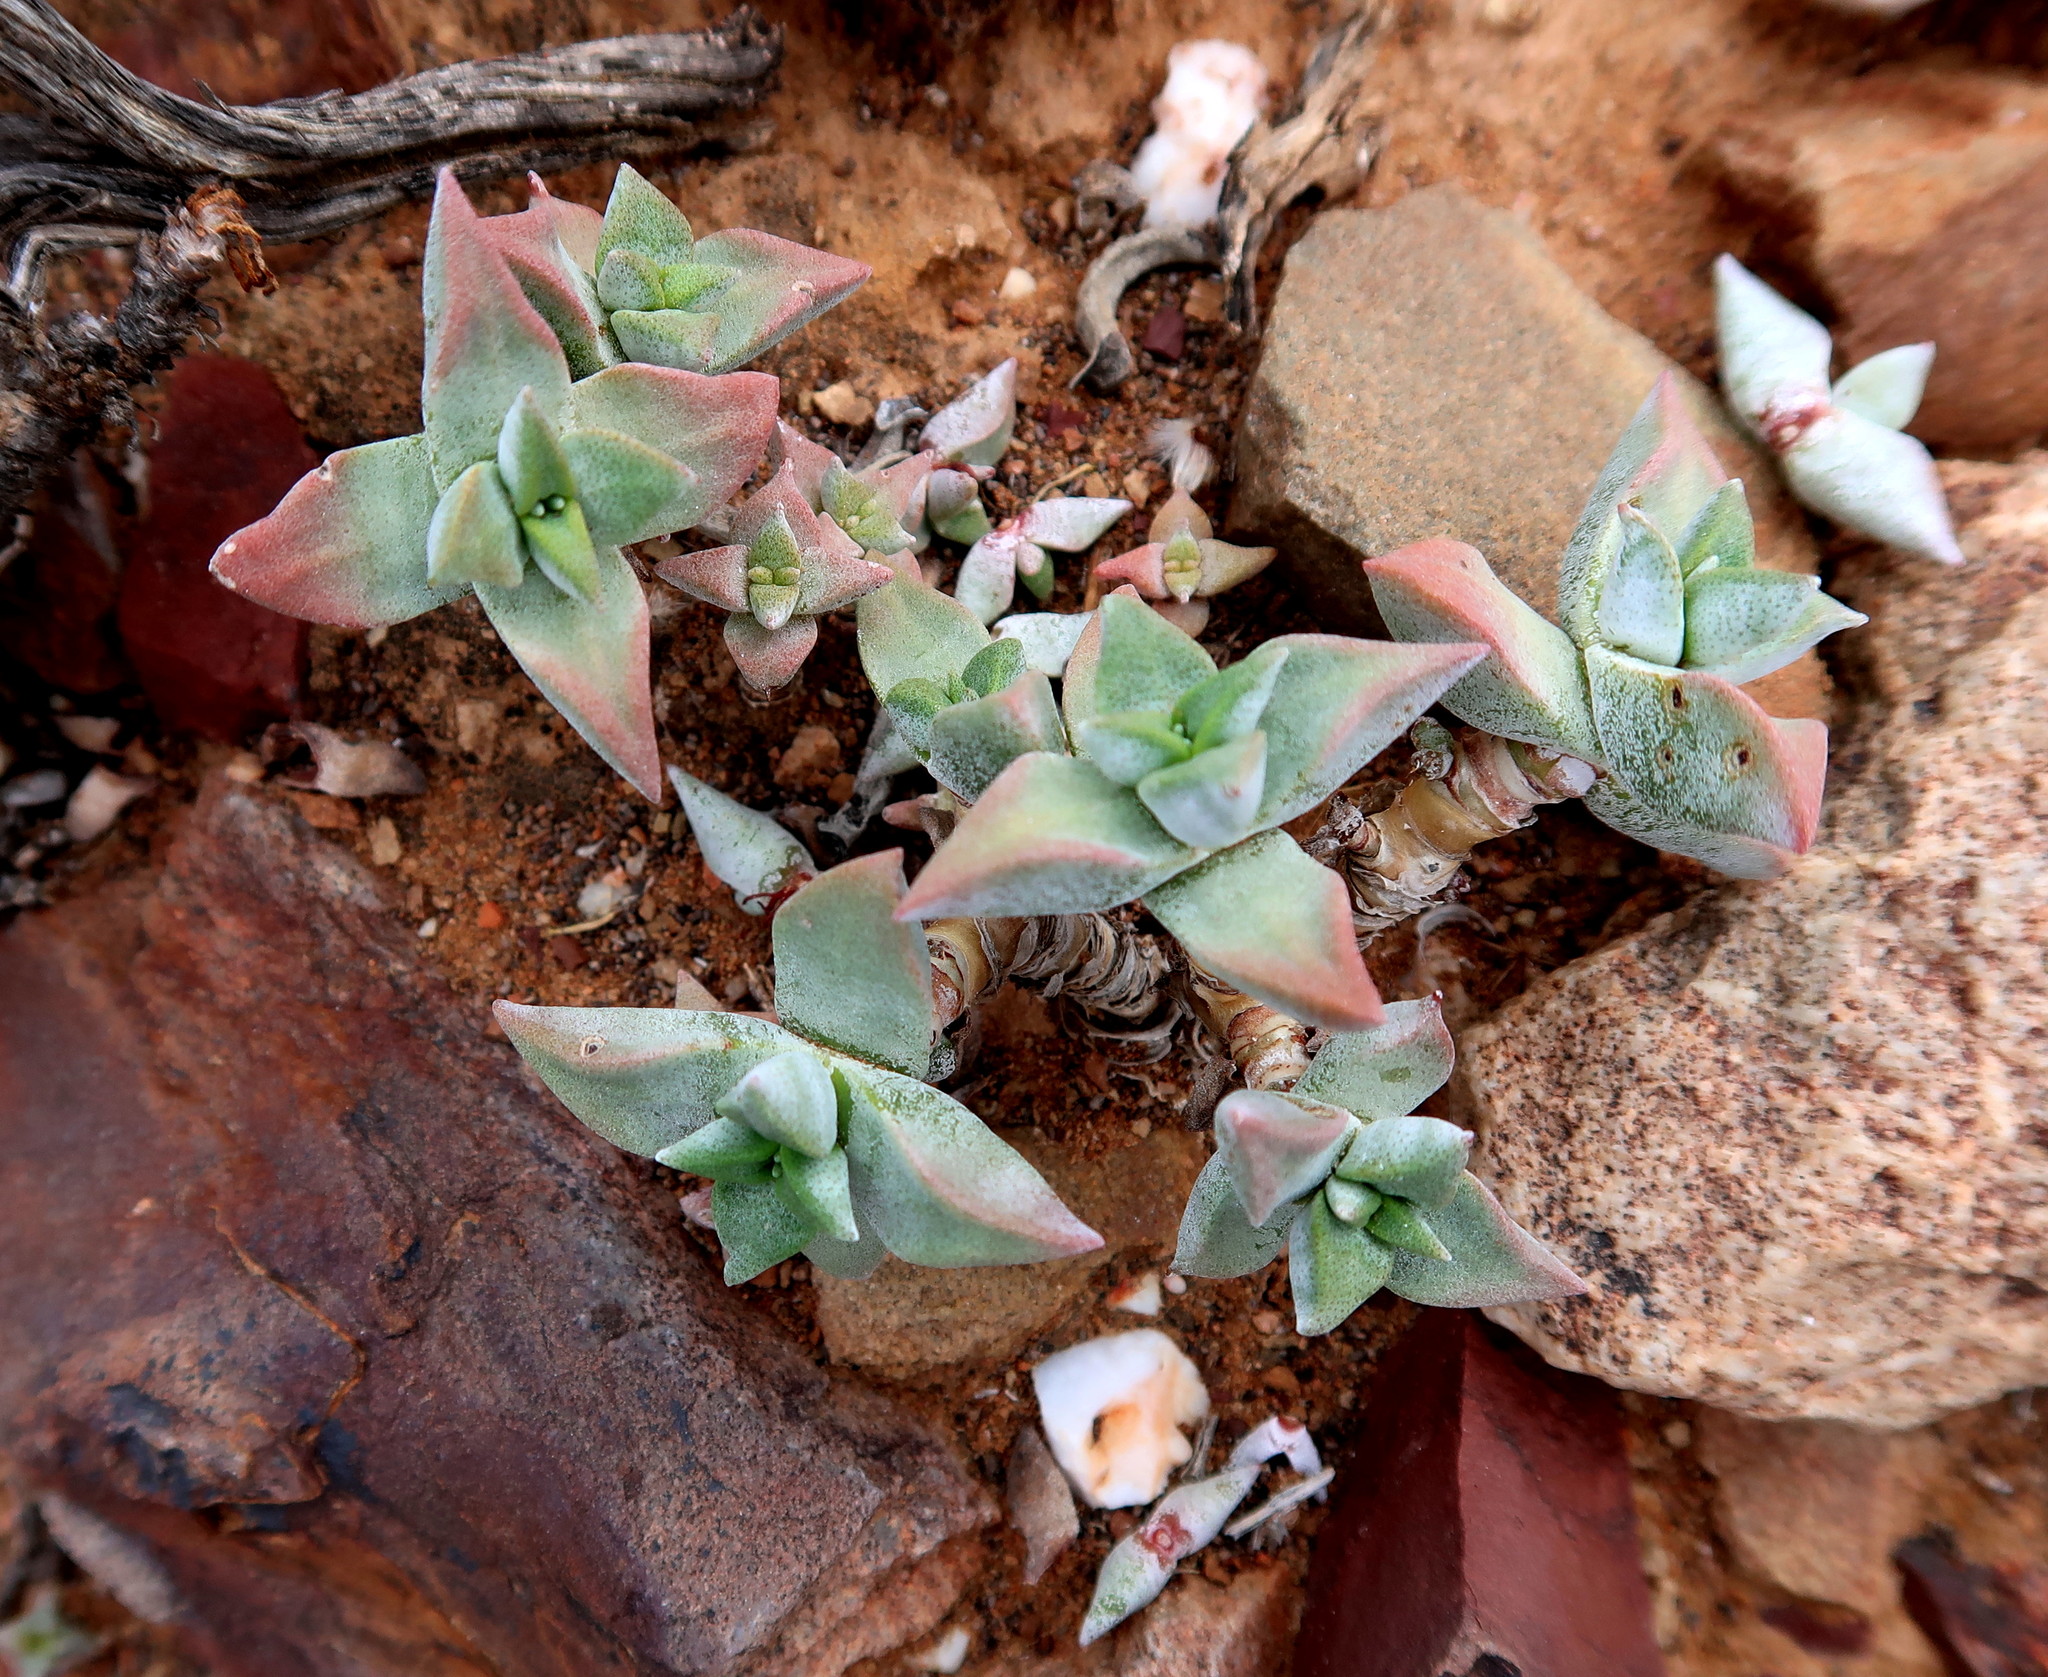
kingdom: Plantae
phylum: Tracheophyta
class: Magnoliopsida
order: Saxifragales
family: Crassulaceae
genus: Crassula
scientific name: Crassula deltoidea
